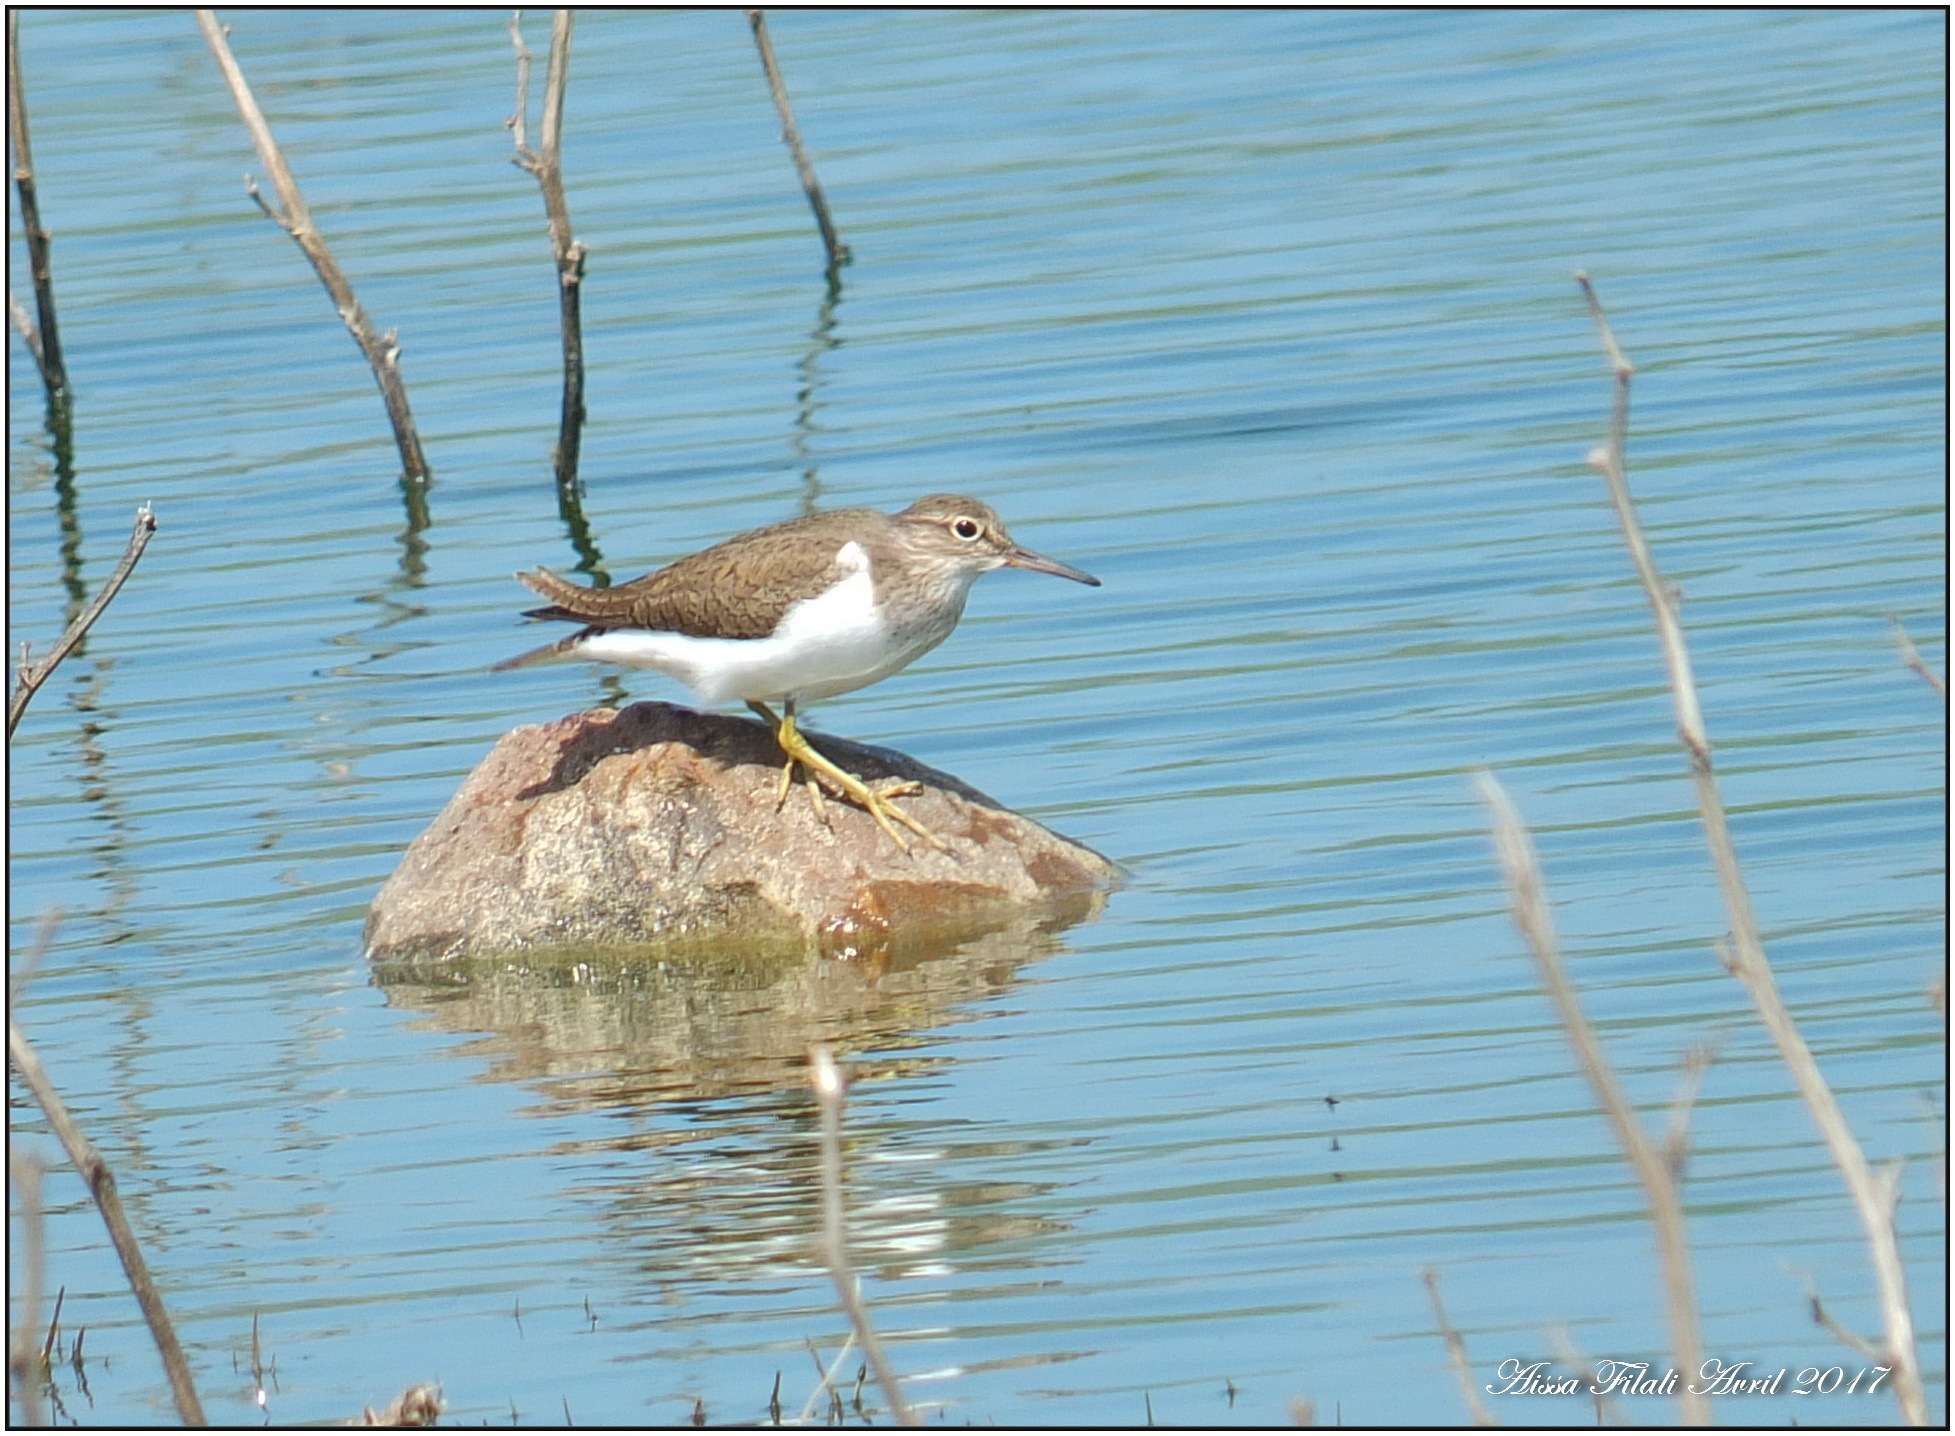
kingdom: Animalia
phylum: Chordata
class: Aves
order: Charadriiformes
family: Scolopacidae
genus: Actitis
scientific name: Actitis hypoleucos
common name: Common sandpiper
